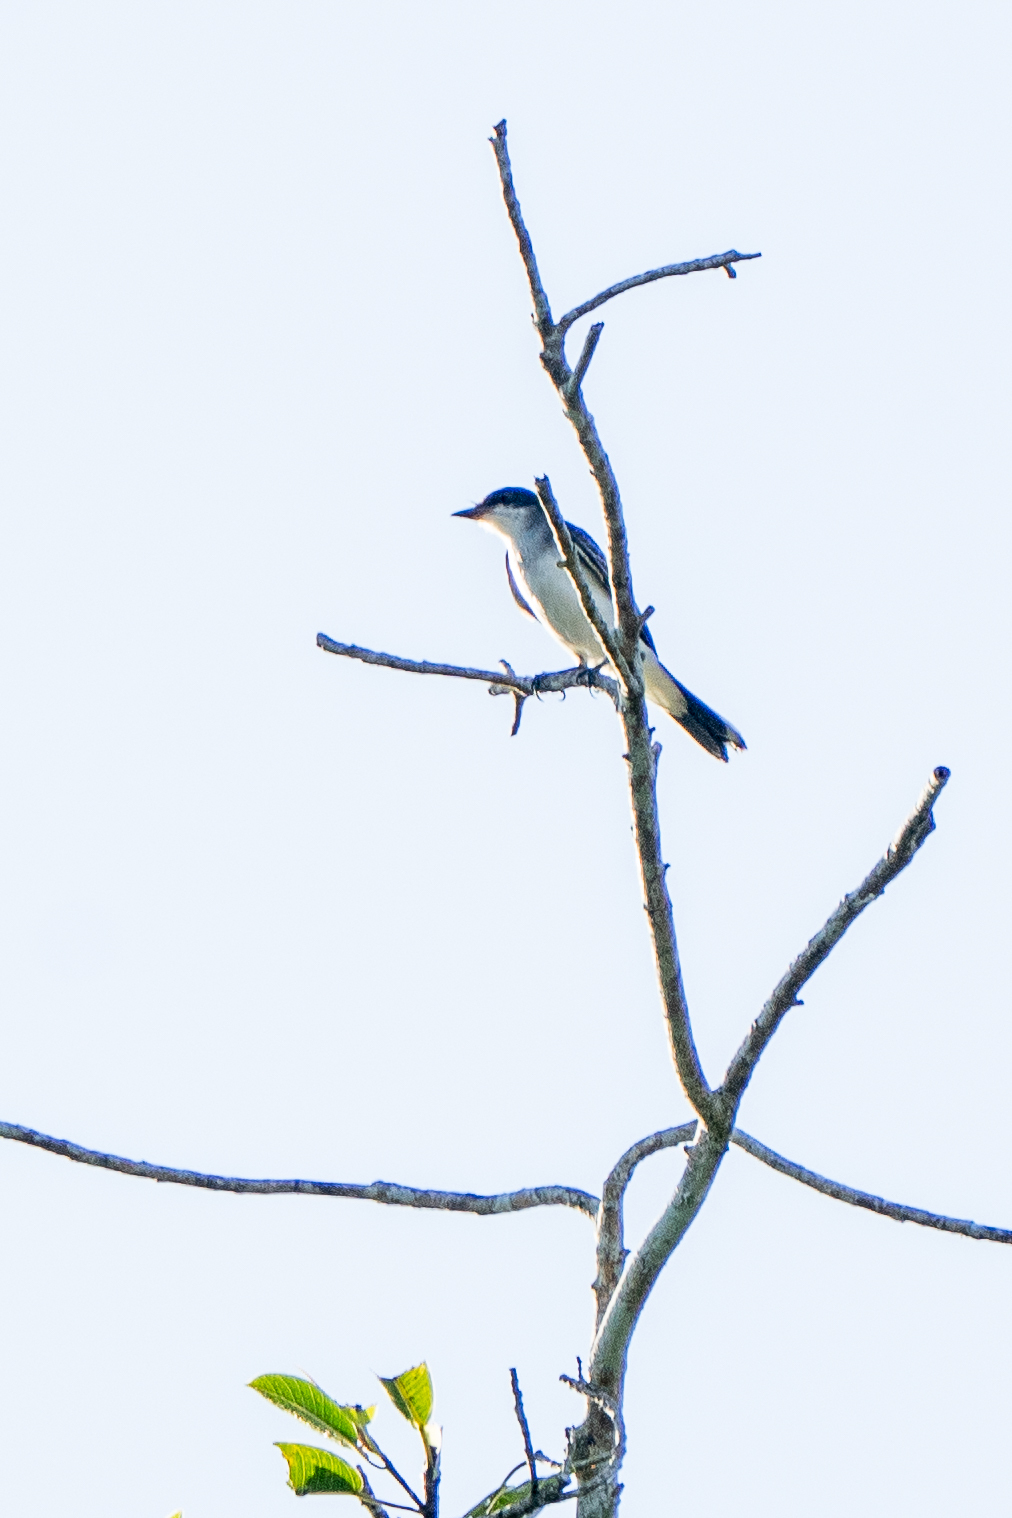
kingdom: Animalia
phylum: Chordata
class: Aves
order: Passeriformes
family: Tyrannidae
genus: Tyrannus
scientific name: Tyrannus tyrannus
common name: Eastern kingbird
